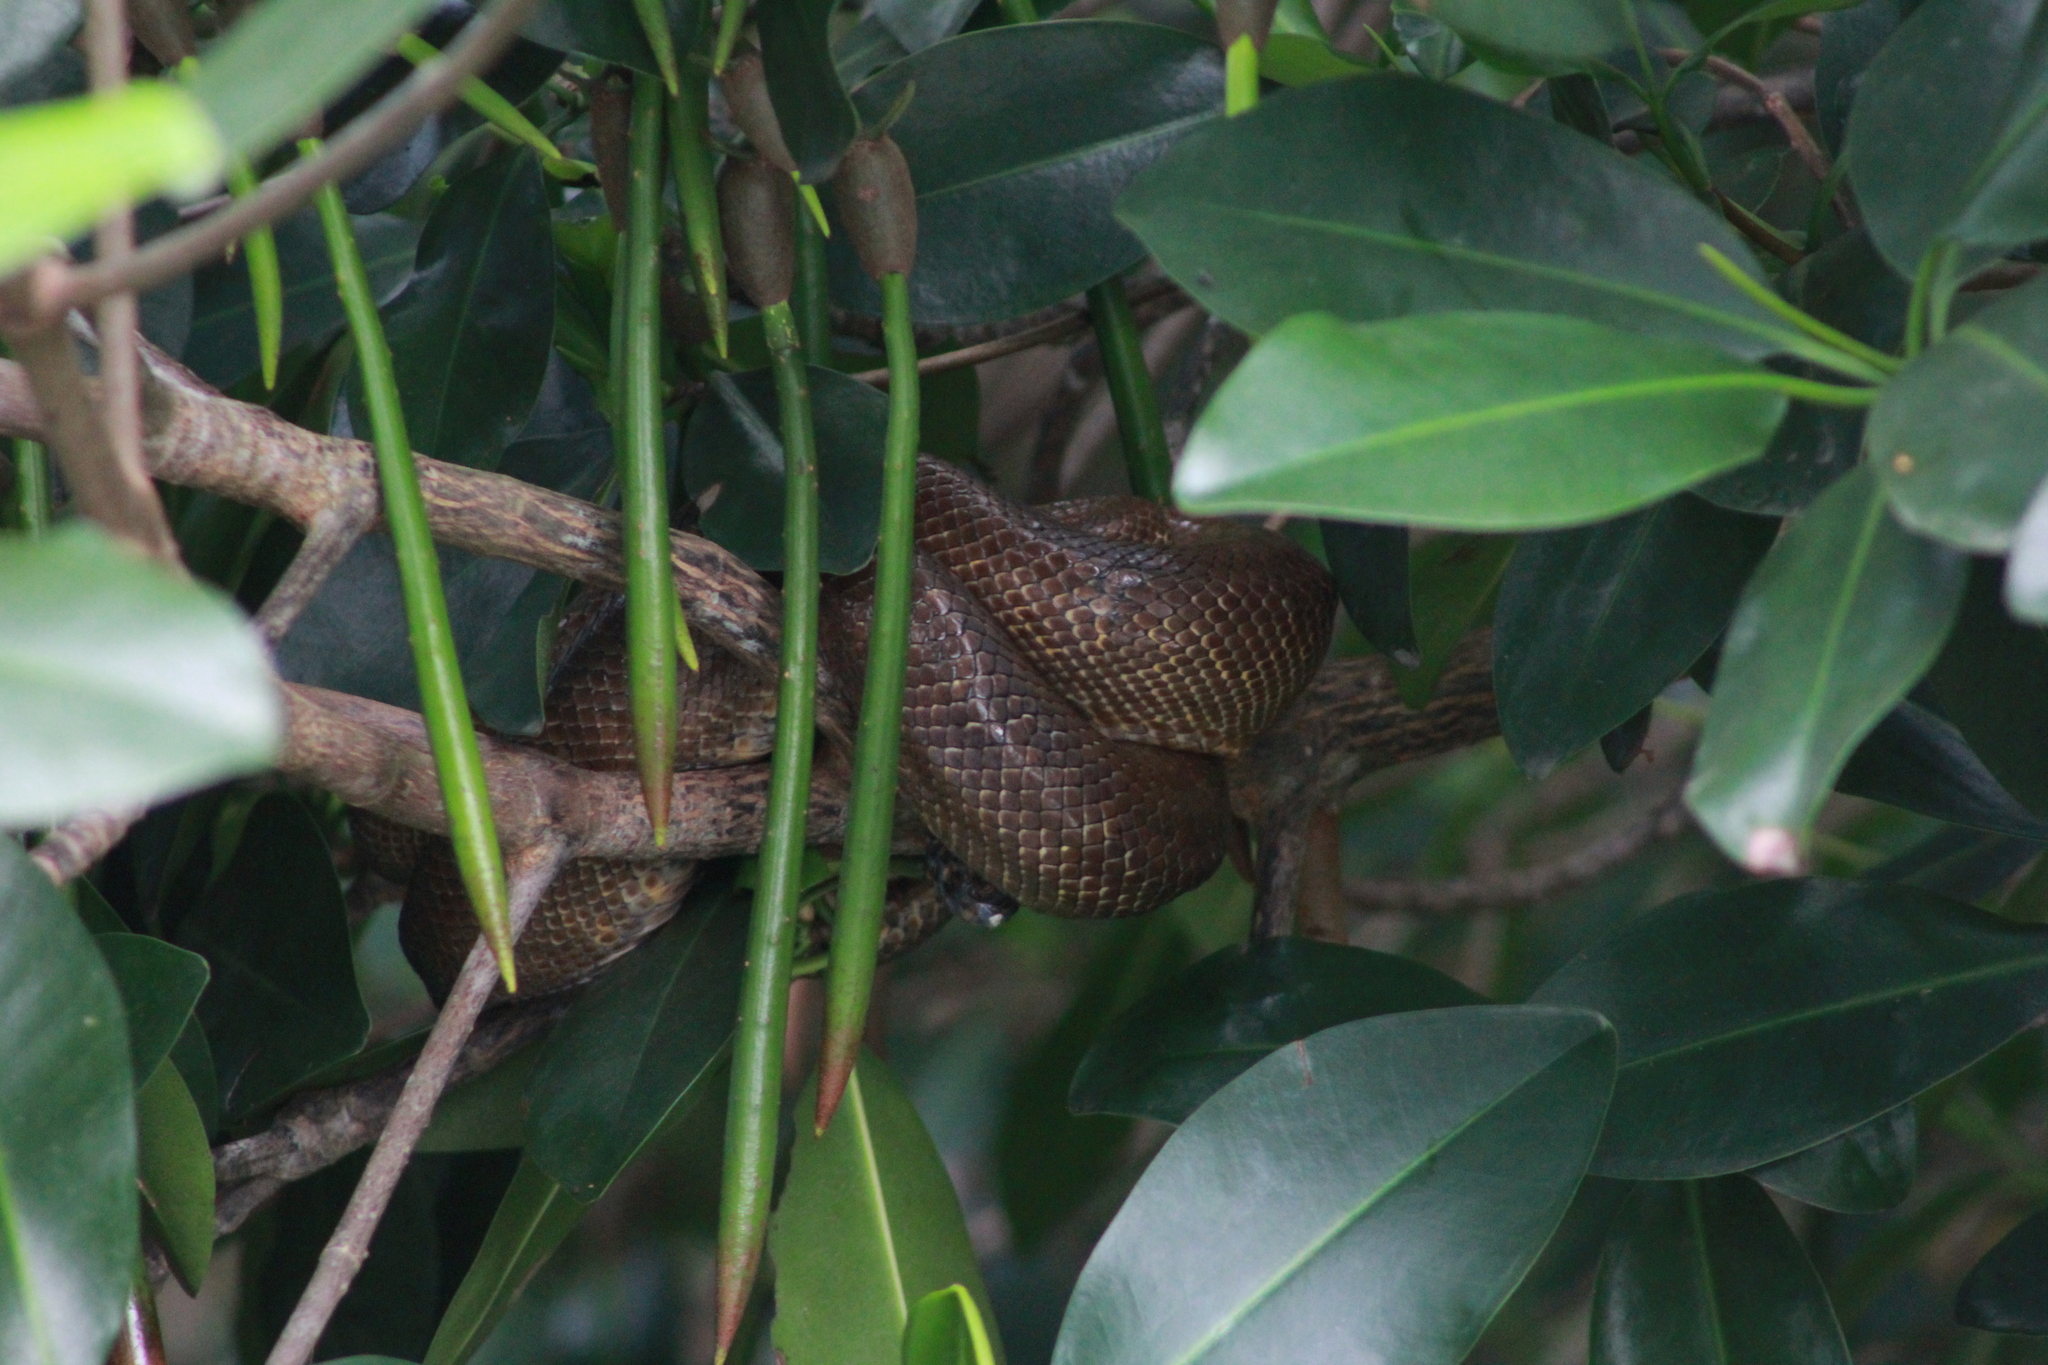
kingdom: Animalia
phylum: Chordata
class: Squamata
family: Boidae
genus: Corallus
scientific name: Corallus ruschenbergerii
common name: Dormilona
